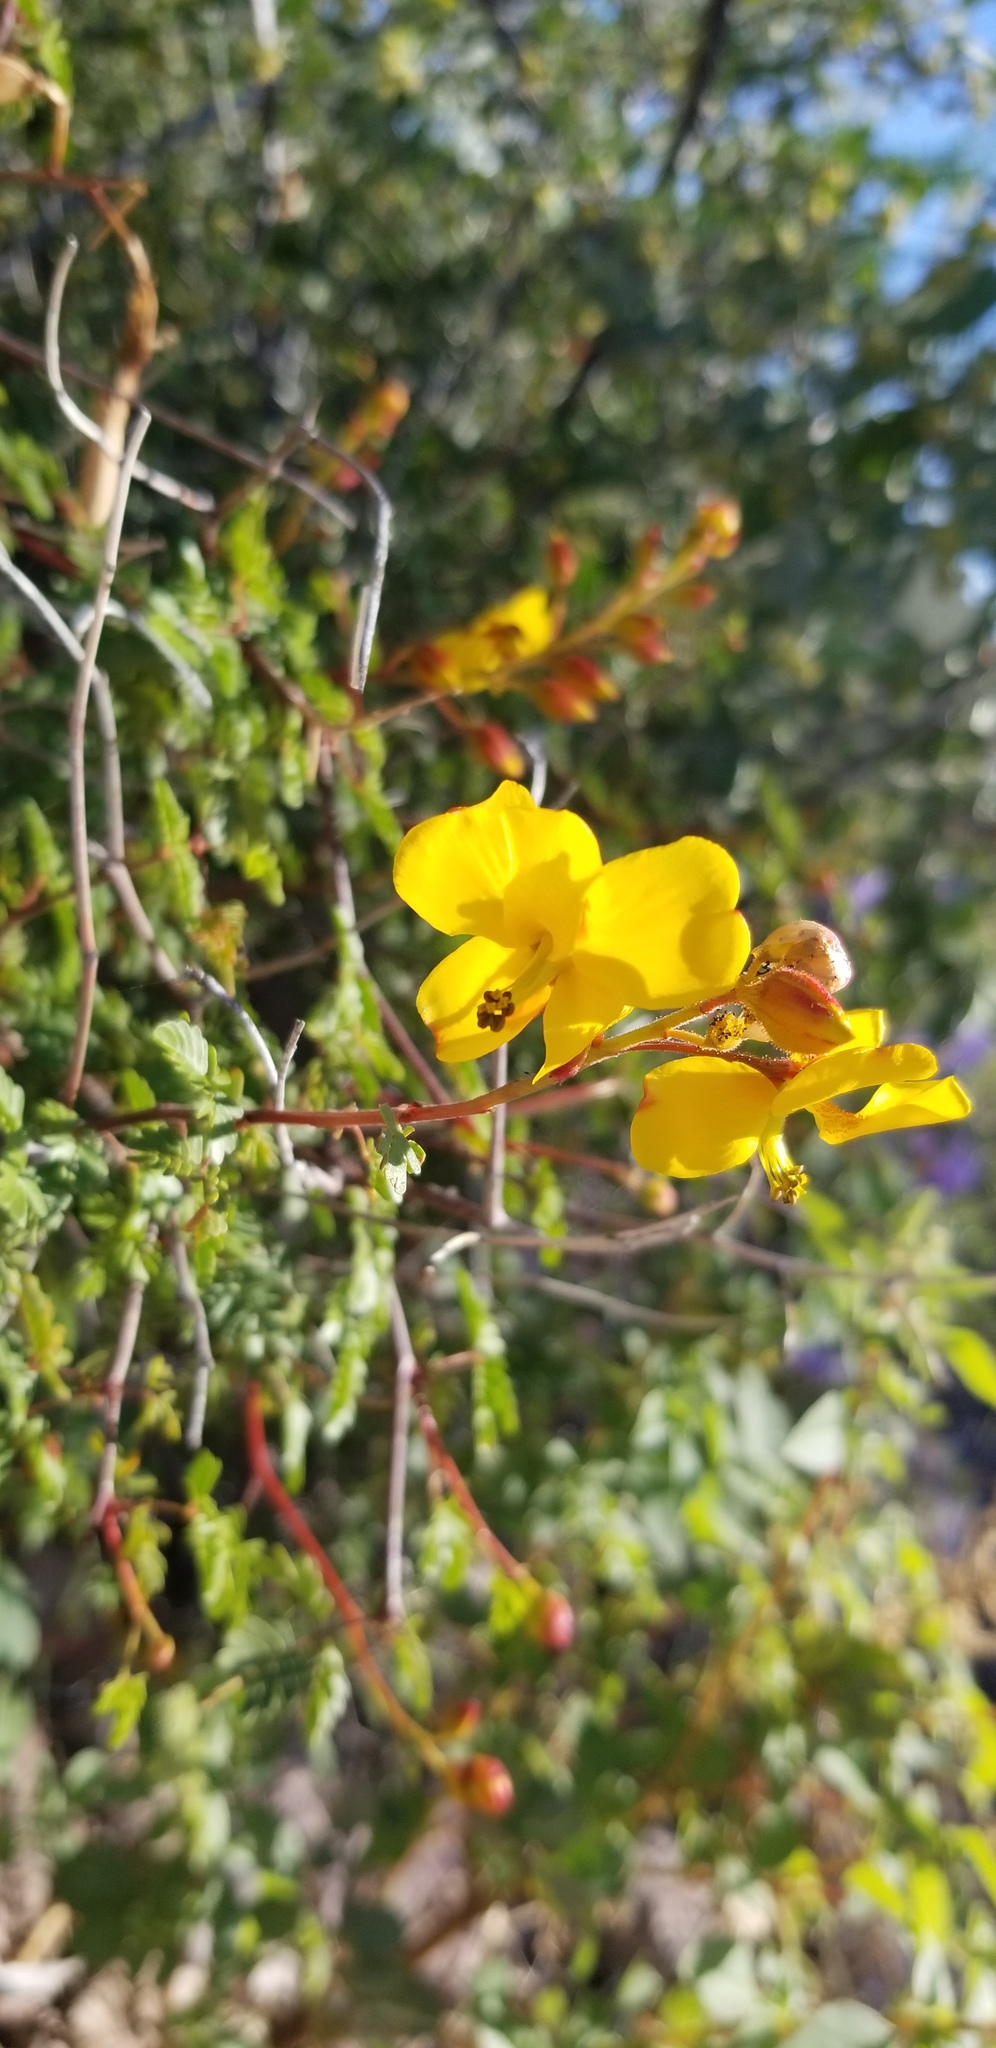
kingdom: Plantae
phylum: Tracheophyta
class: Magnoliopsida
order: Fabales
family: Fabaceae
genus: Erythrostemon
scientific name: Erythrostemon placidus
